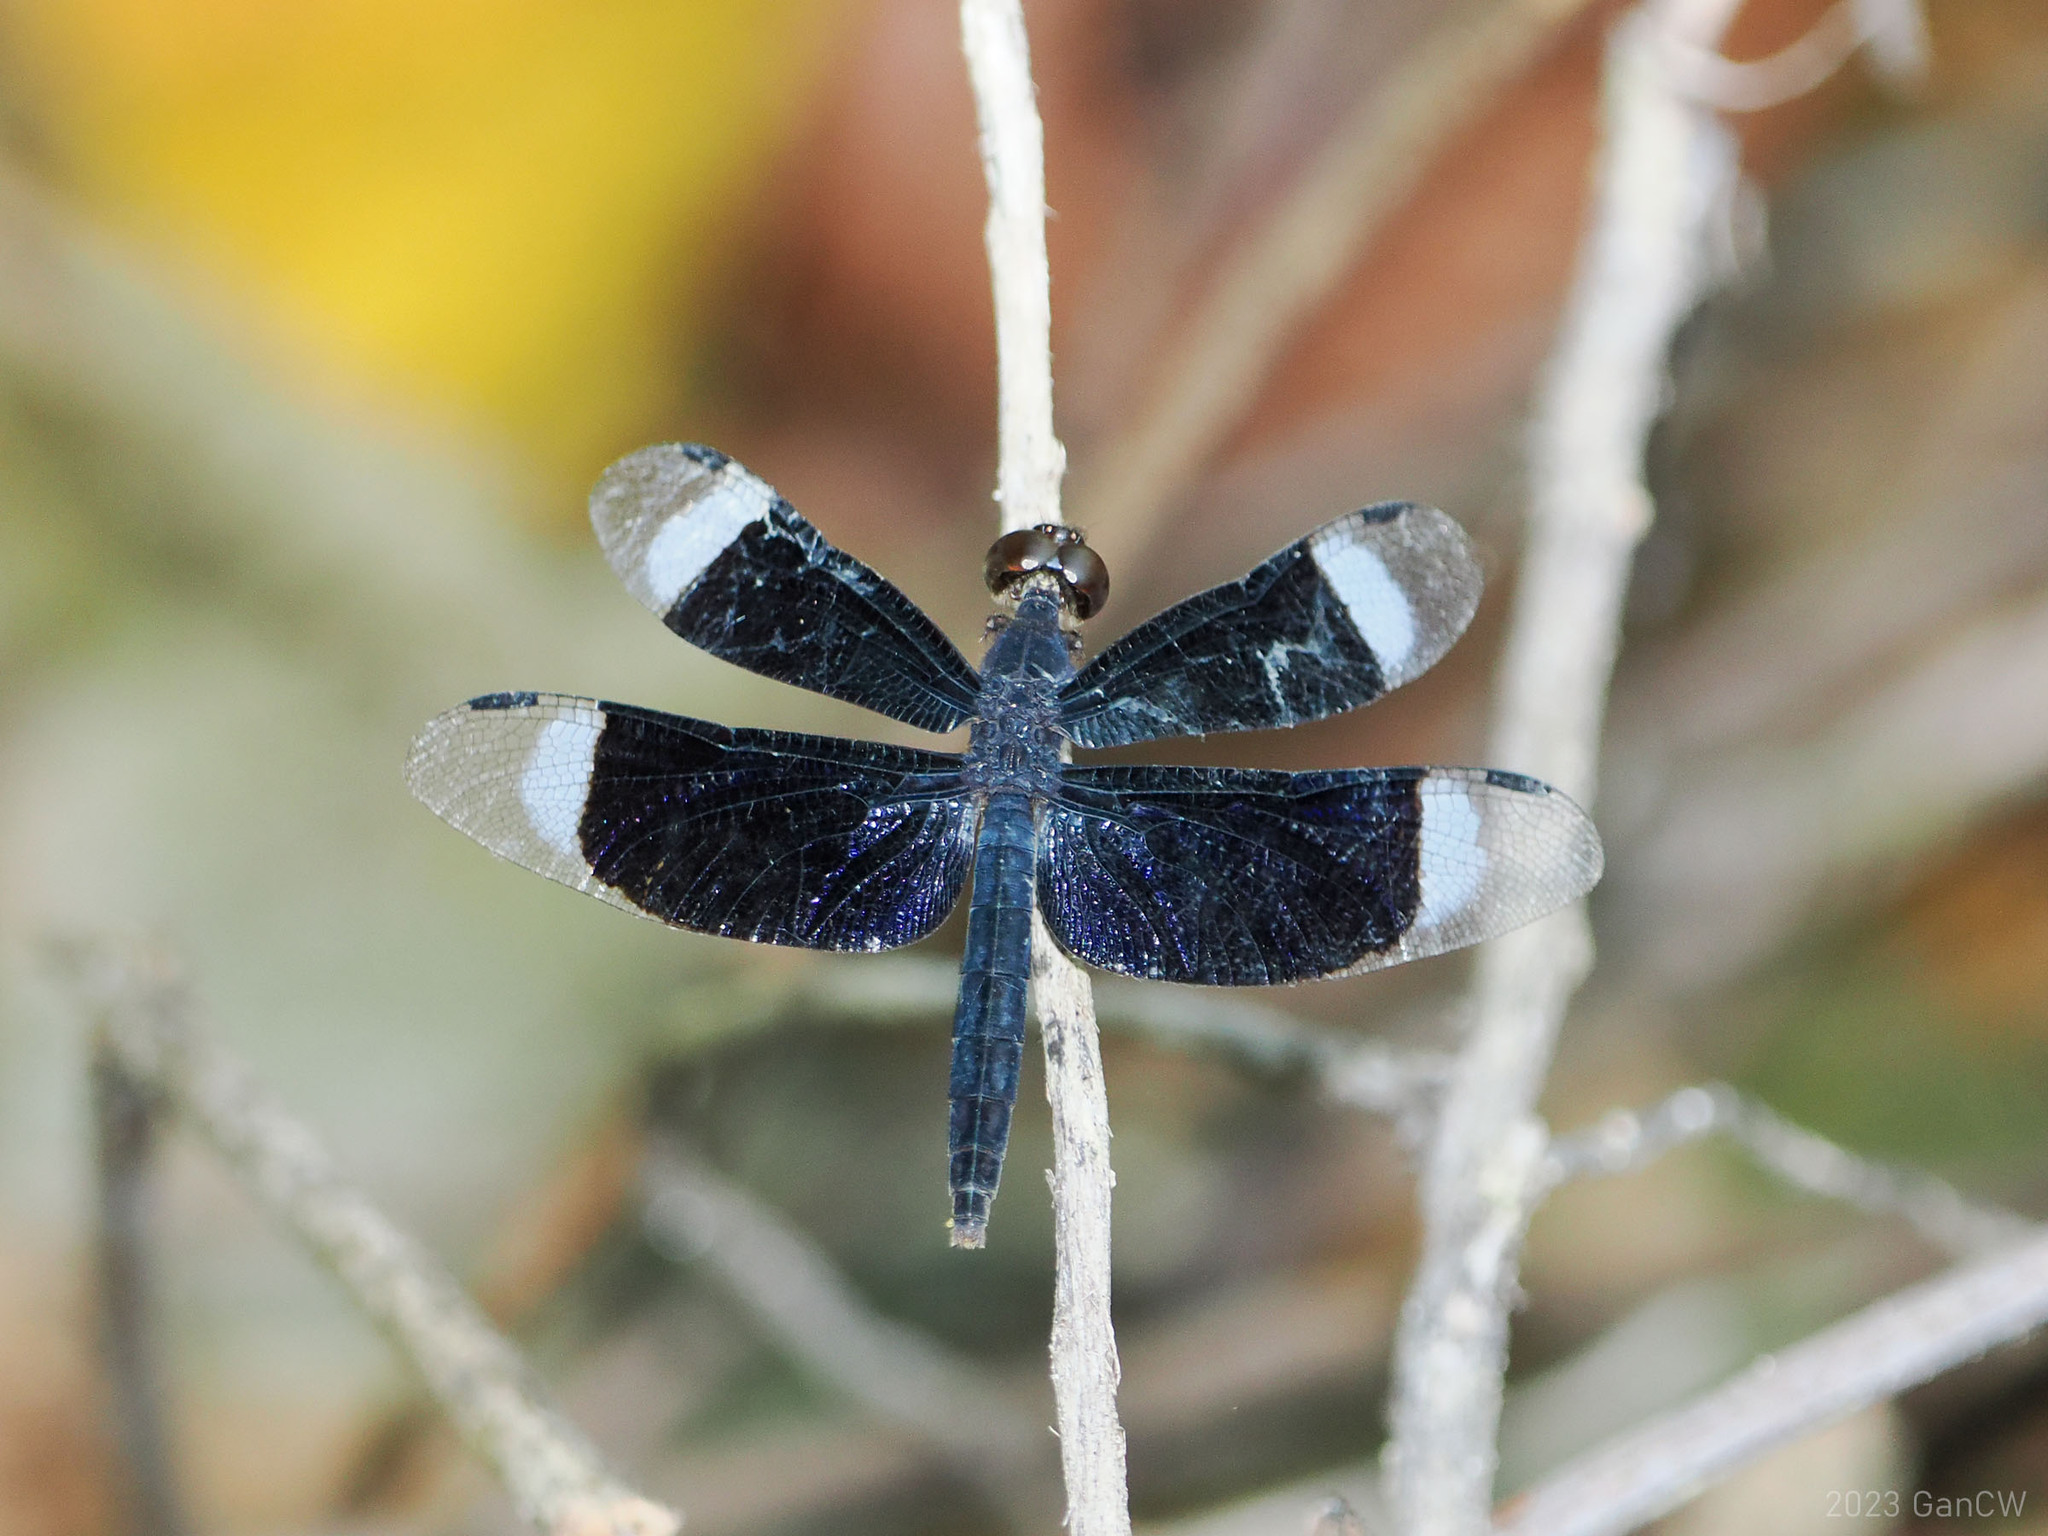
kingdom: Animalia
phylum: Arthropoda
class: Insecta
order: Odonata
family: Libellulidae
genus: Neurothemis
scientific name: Neurothemis decora
